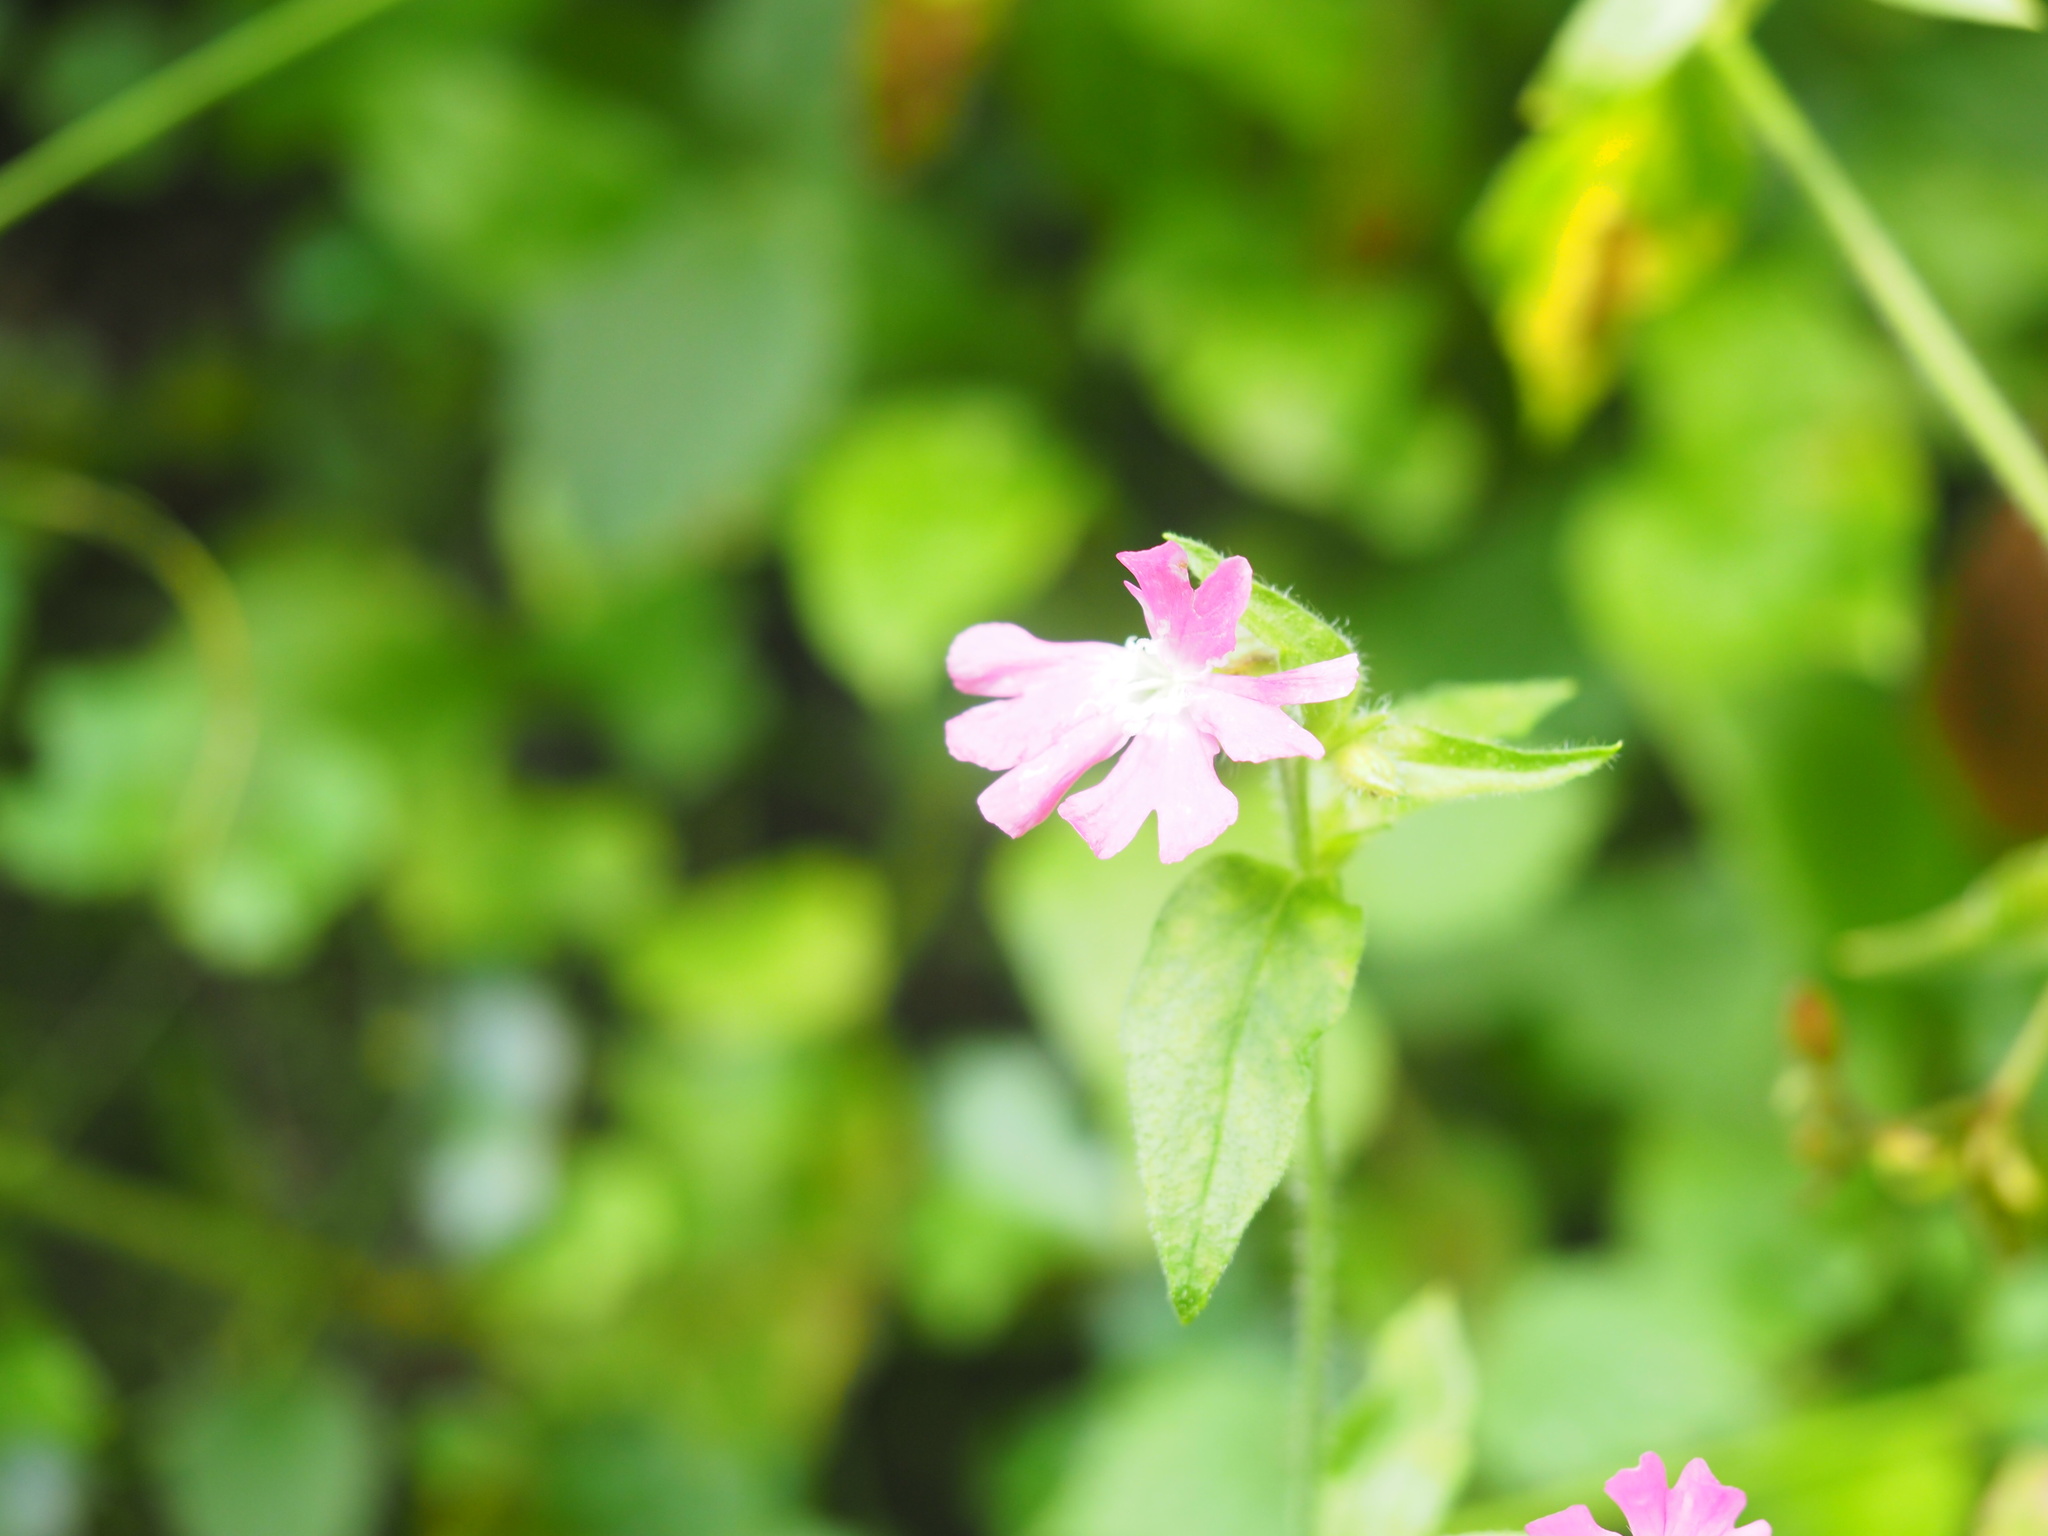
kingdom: Plantae
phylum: Tracheophyta
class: Magnoliopsida
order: Caryophyllales
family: Caryophyllaceae
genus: Silene
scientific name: Silene dioica
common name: Red campion
